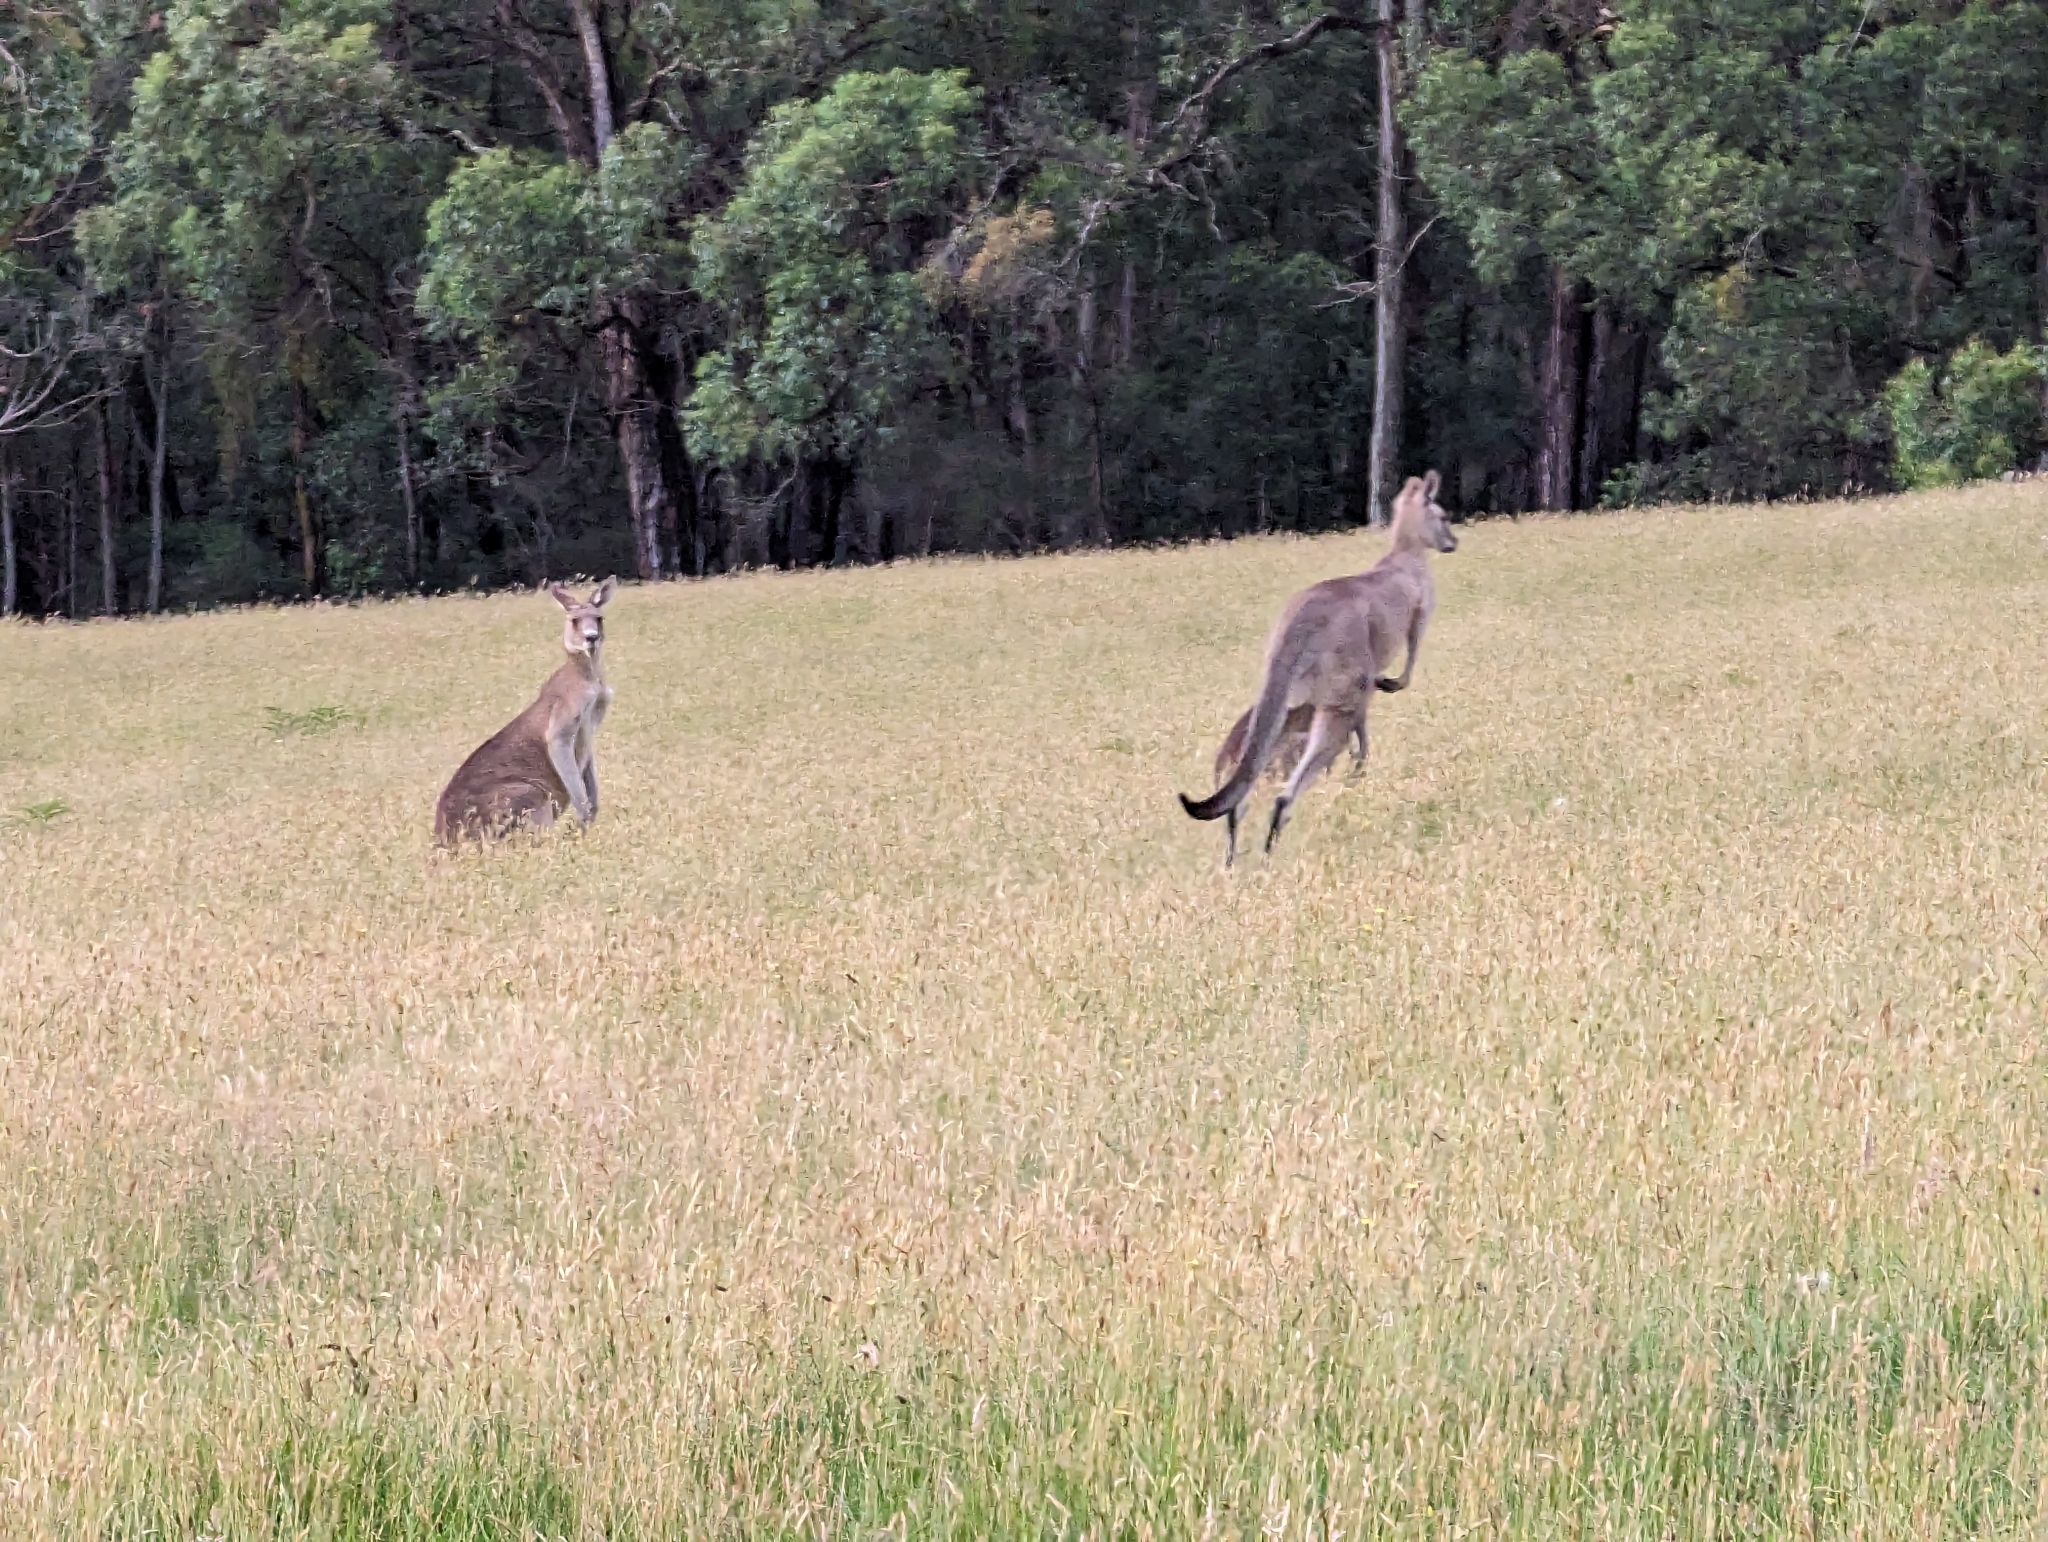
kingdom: Animalia
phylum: Chordata
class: Mammalia
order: Diprotodontia
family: Macropodidae
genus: Macropus
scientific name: Macropus giganteus
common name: Eastern grey kangaroo
